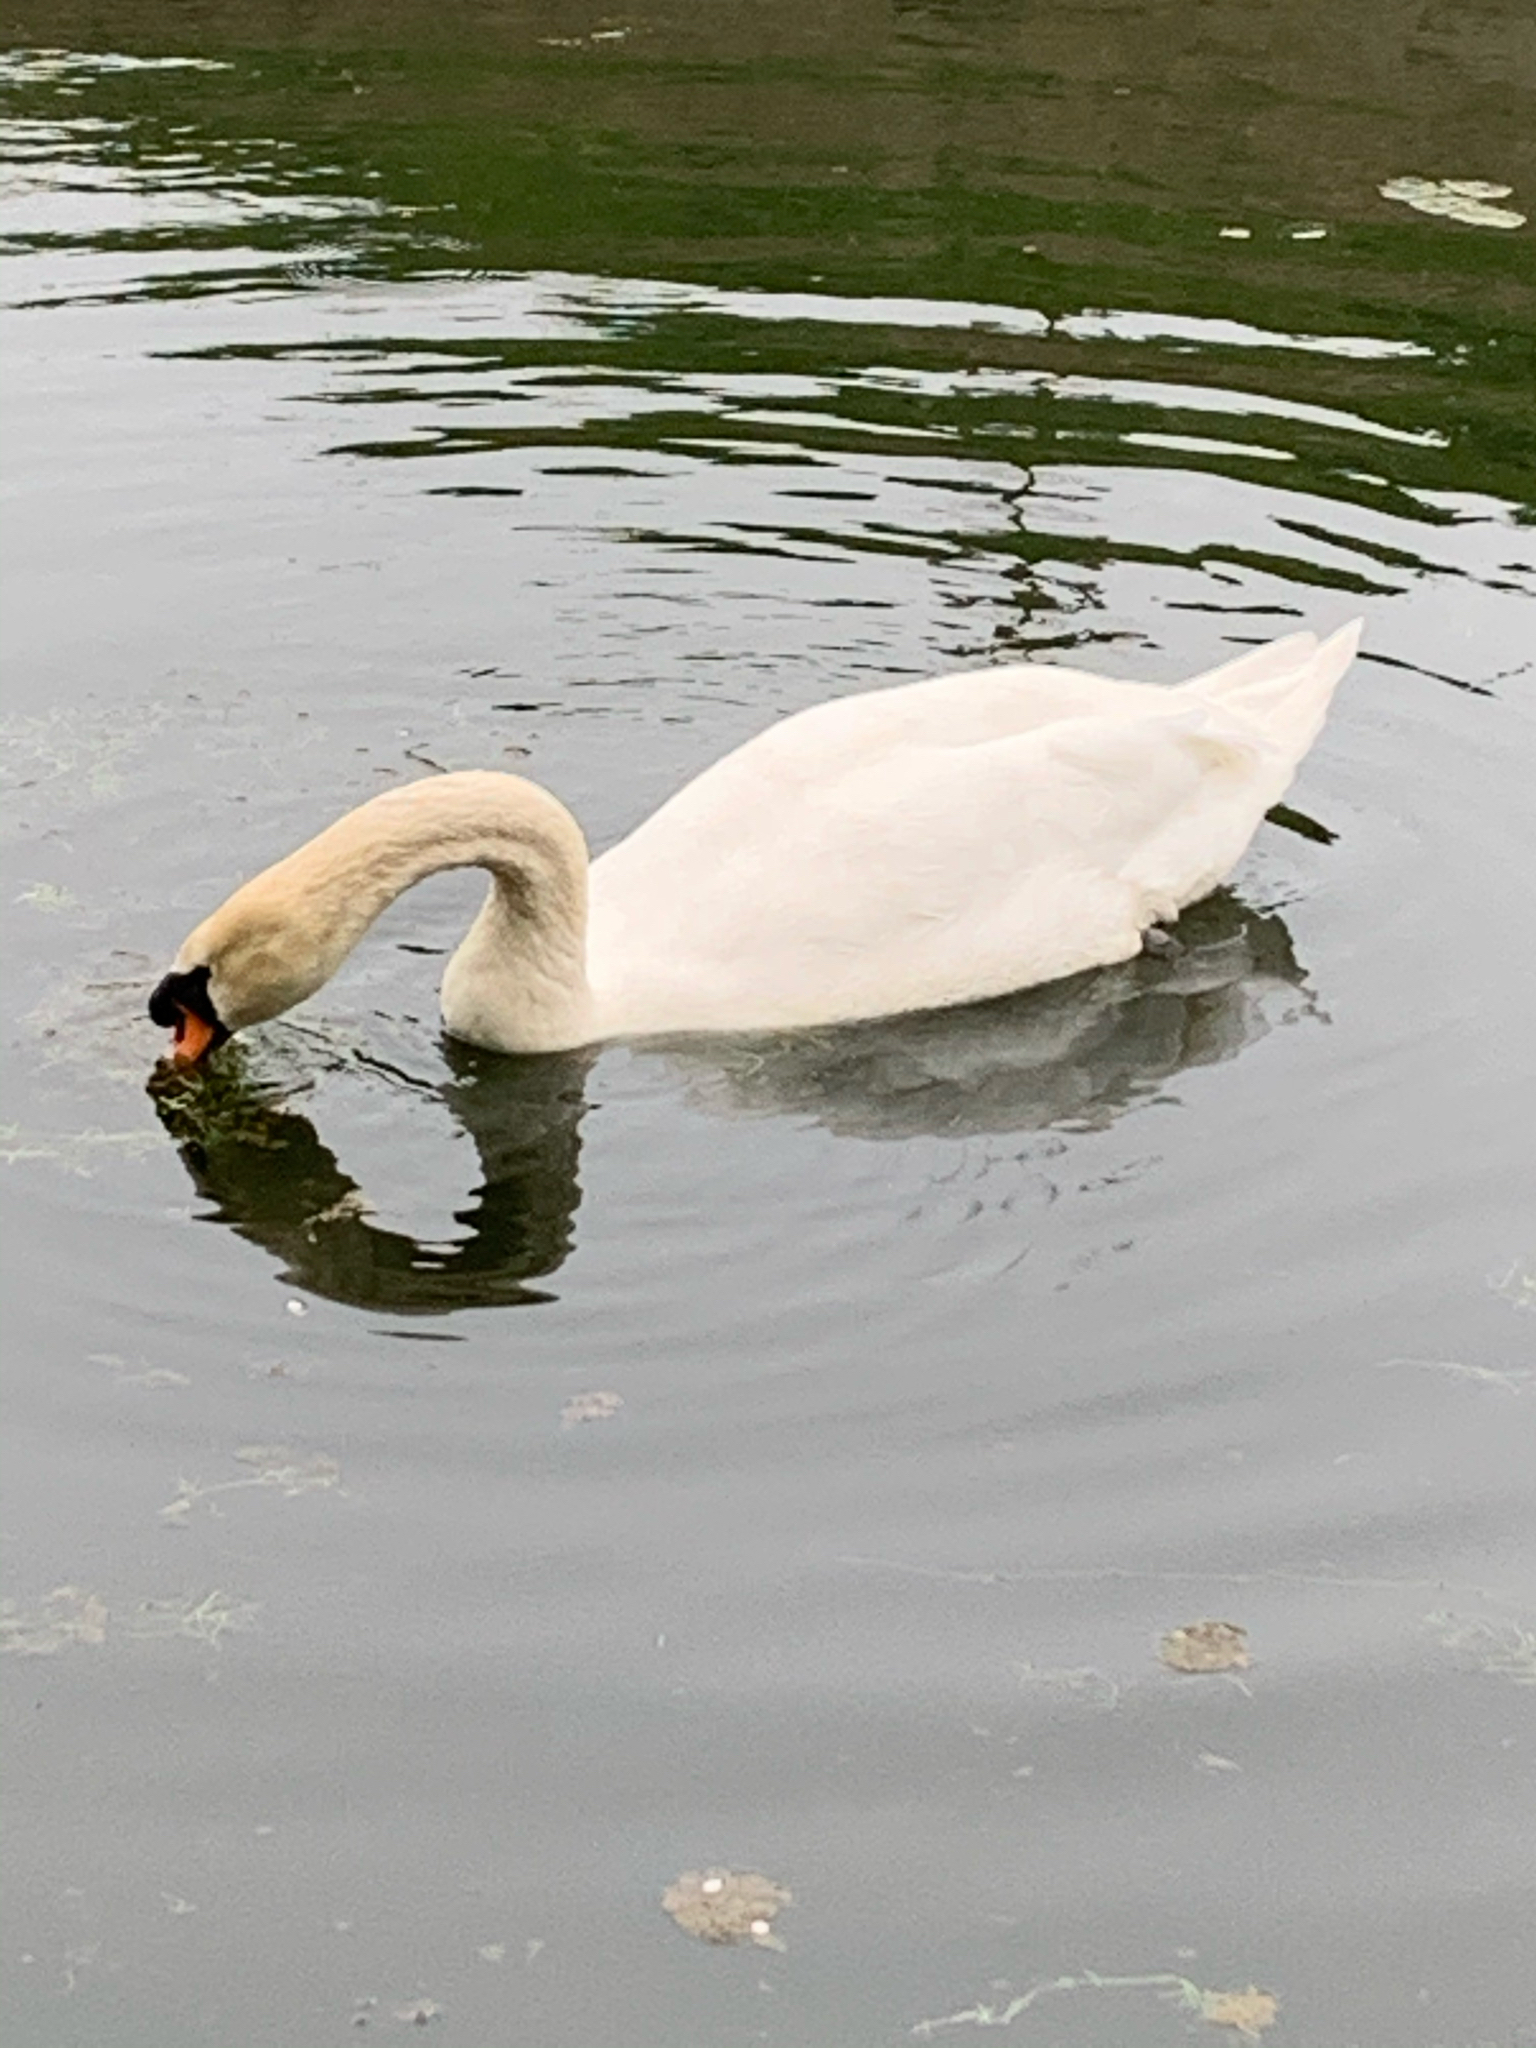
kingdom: Animalia
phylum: Chordata
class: Aves
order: Anseriformes
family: Anatidae
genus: Cygnus
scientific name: Cygnus olor
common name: Mute swan
